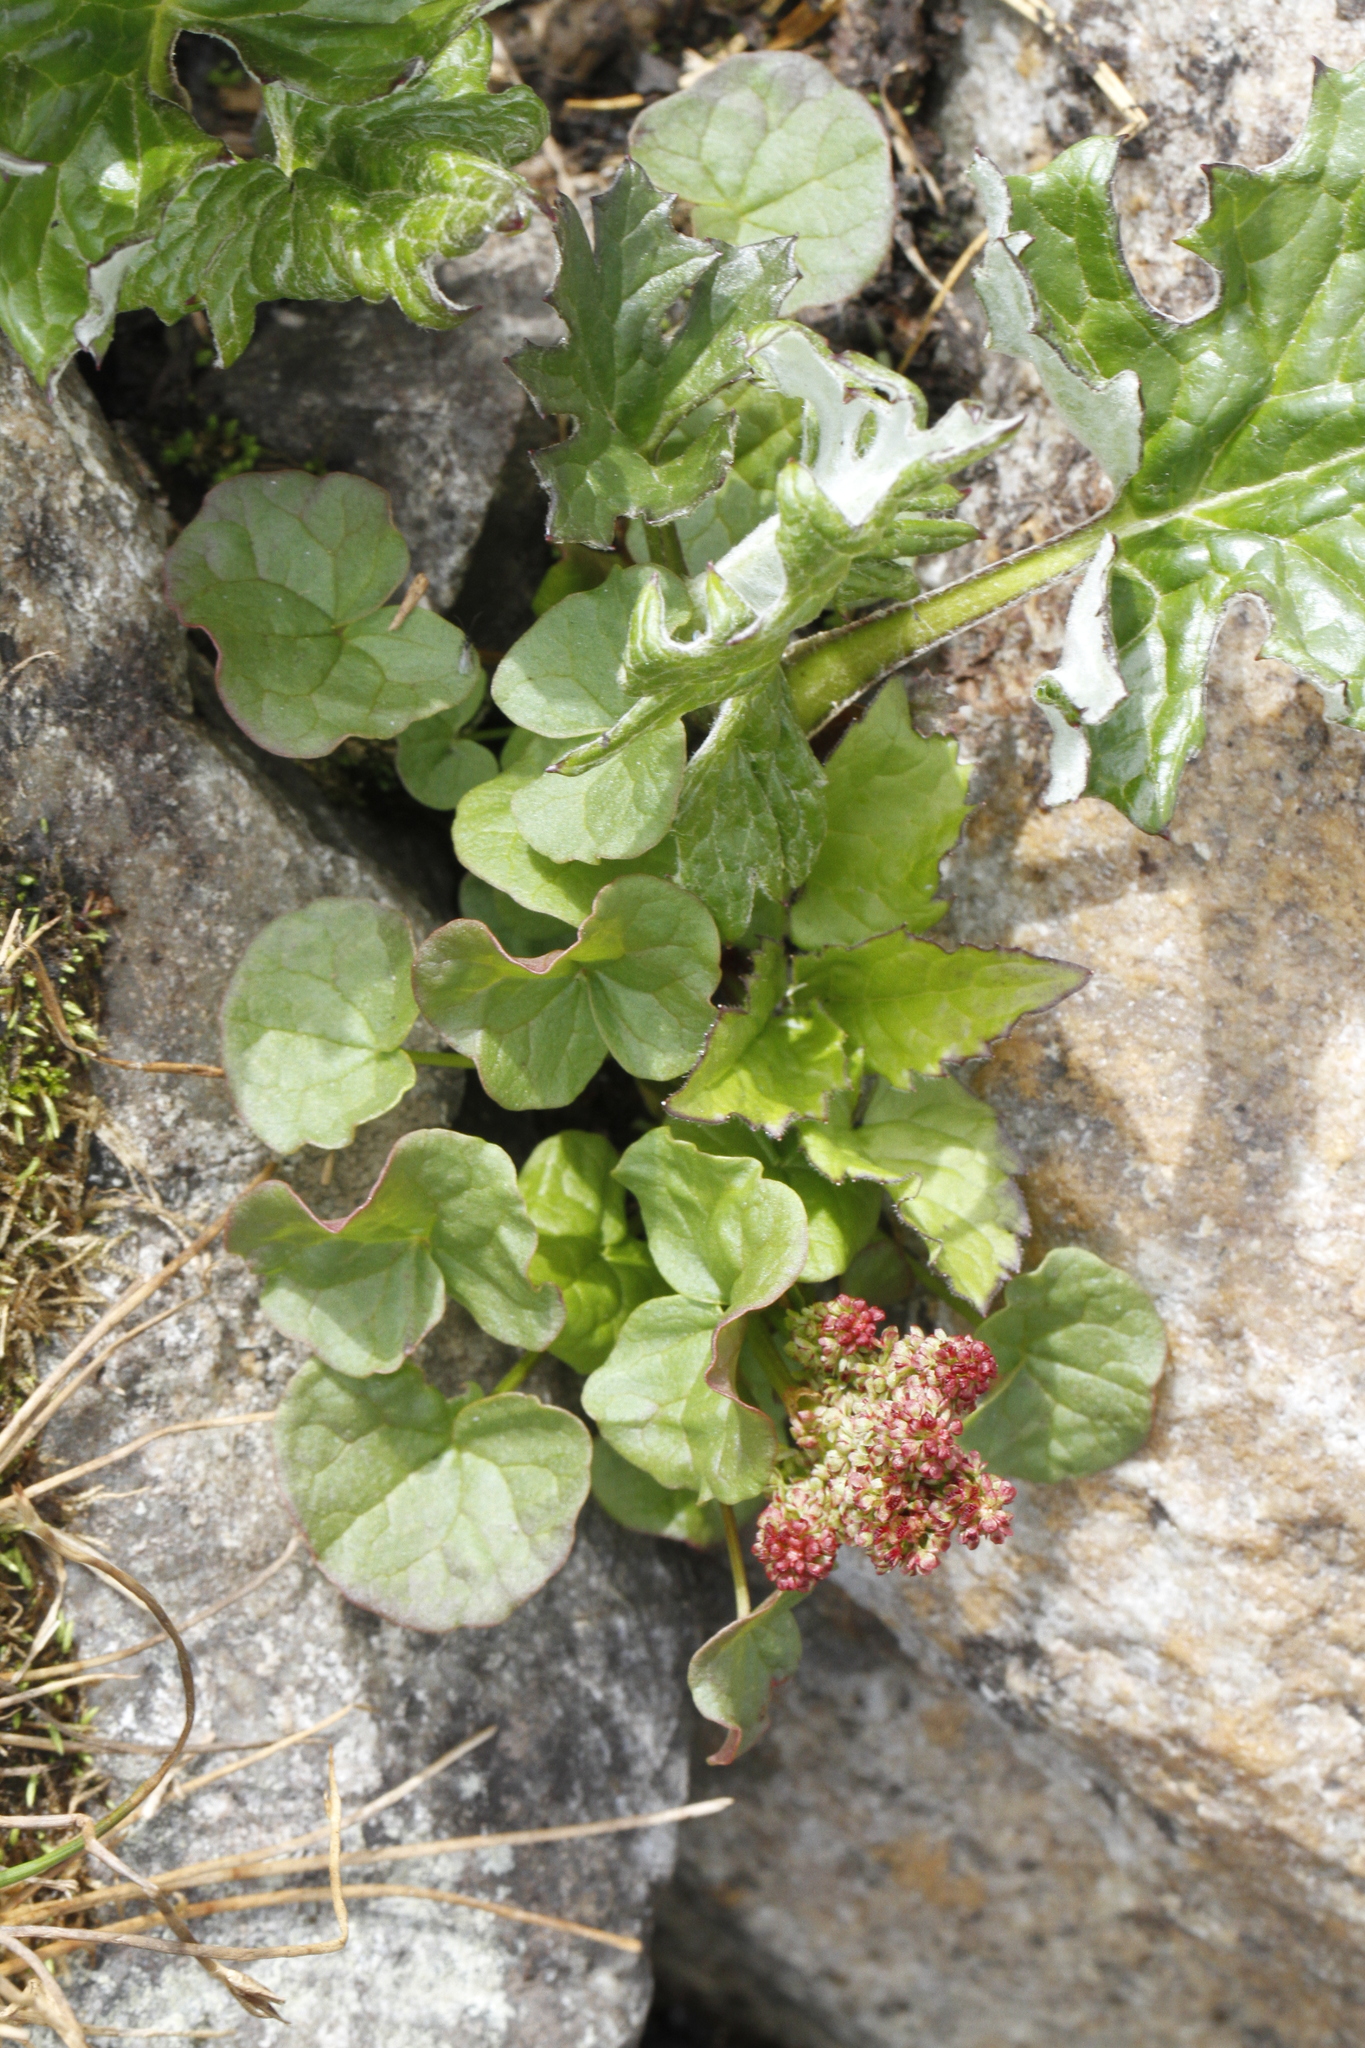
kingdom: Plantae
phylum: Tracheophyta
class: Magnoliopsida
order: Caryophyllales
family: Polygonaceae
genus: Oxyria
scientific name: Oxyria digyna
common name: Alpine mountain-sorrel
